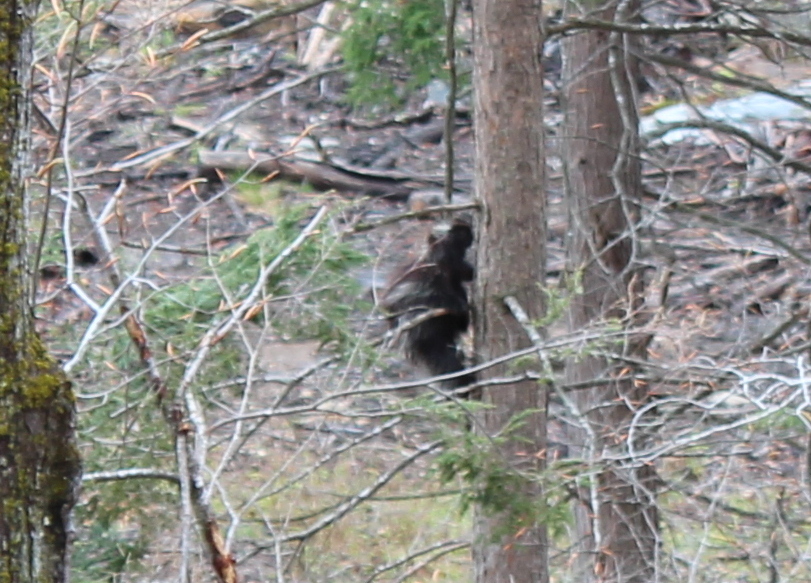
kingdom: Animalia
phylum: Chordata
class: Mammalia
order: Rodentia
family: Erethizontidae
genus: Erethizon
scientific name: Erethizon dorsatus
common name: North american porcupine
